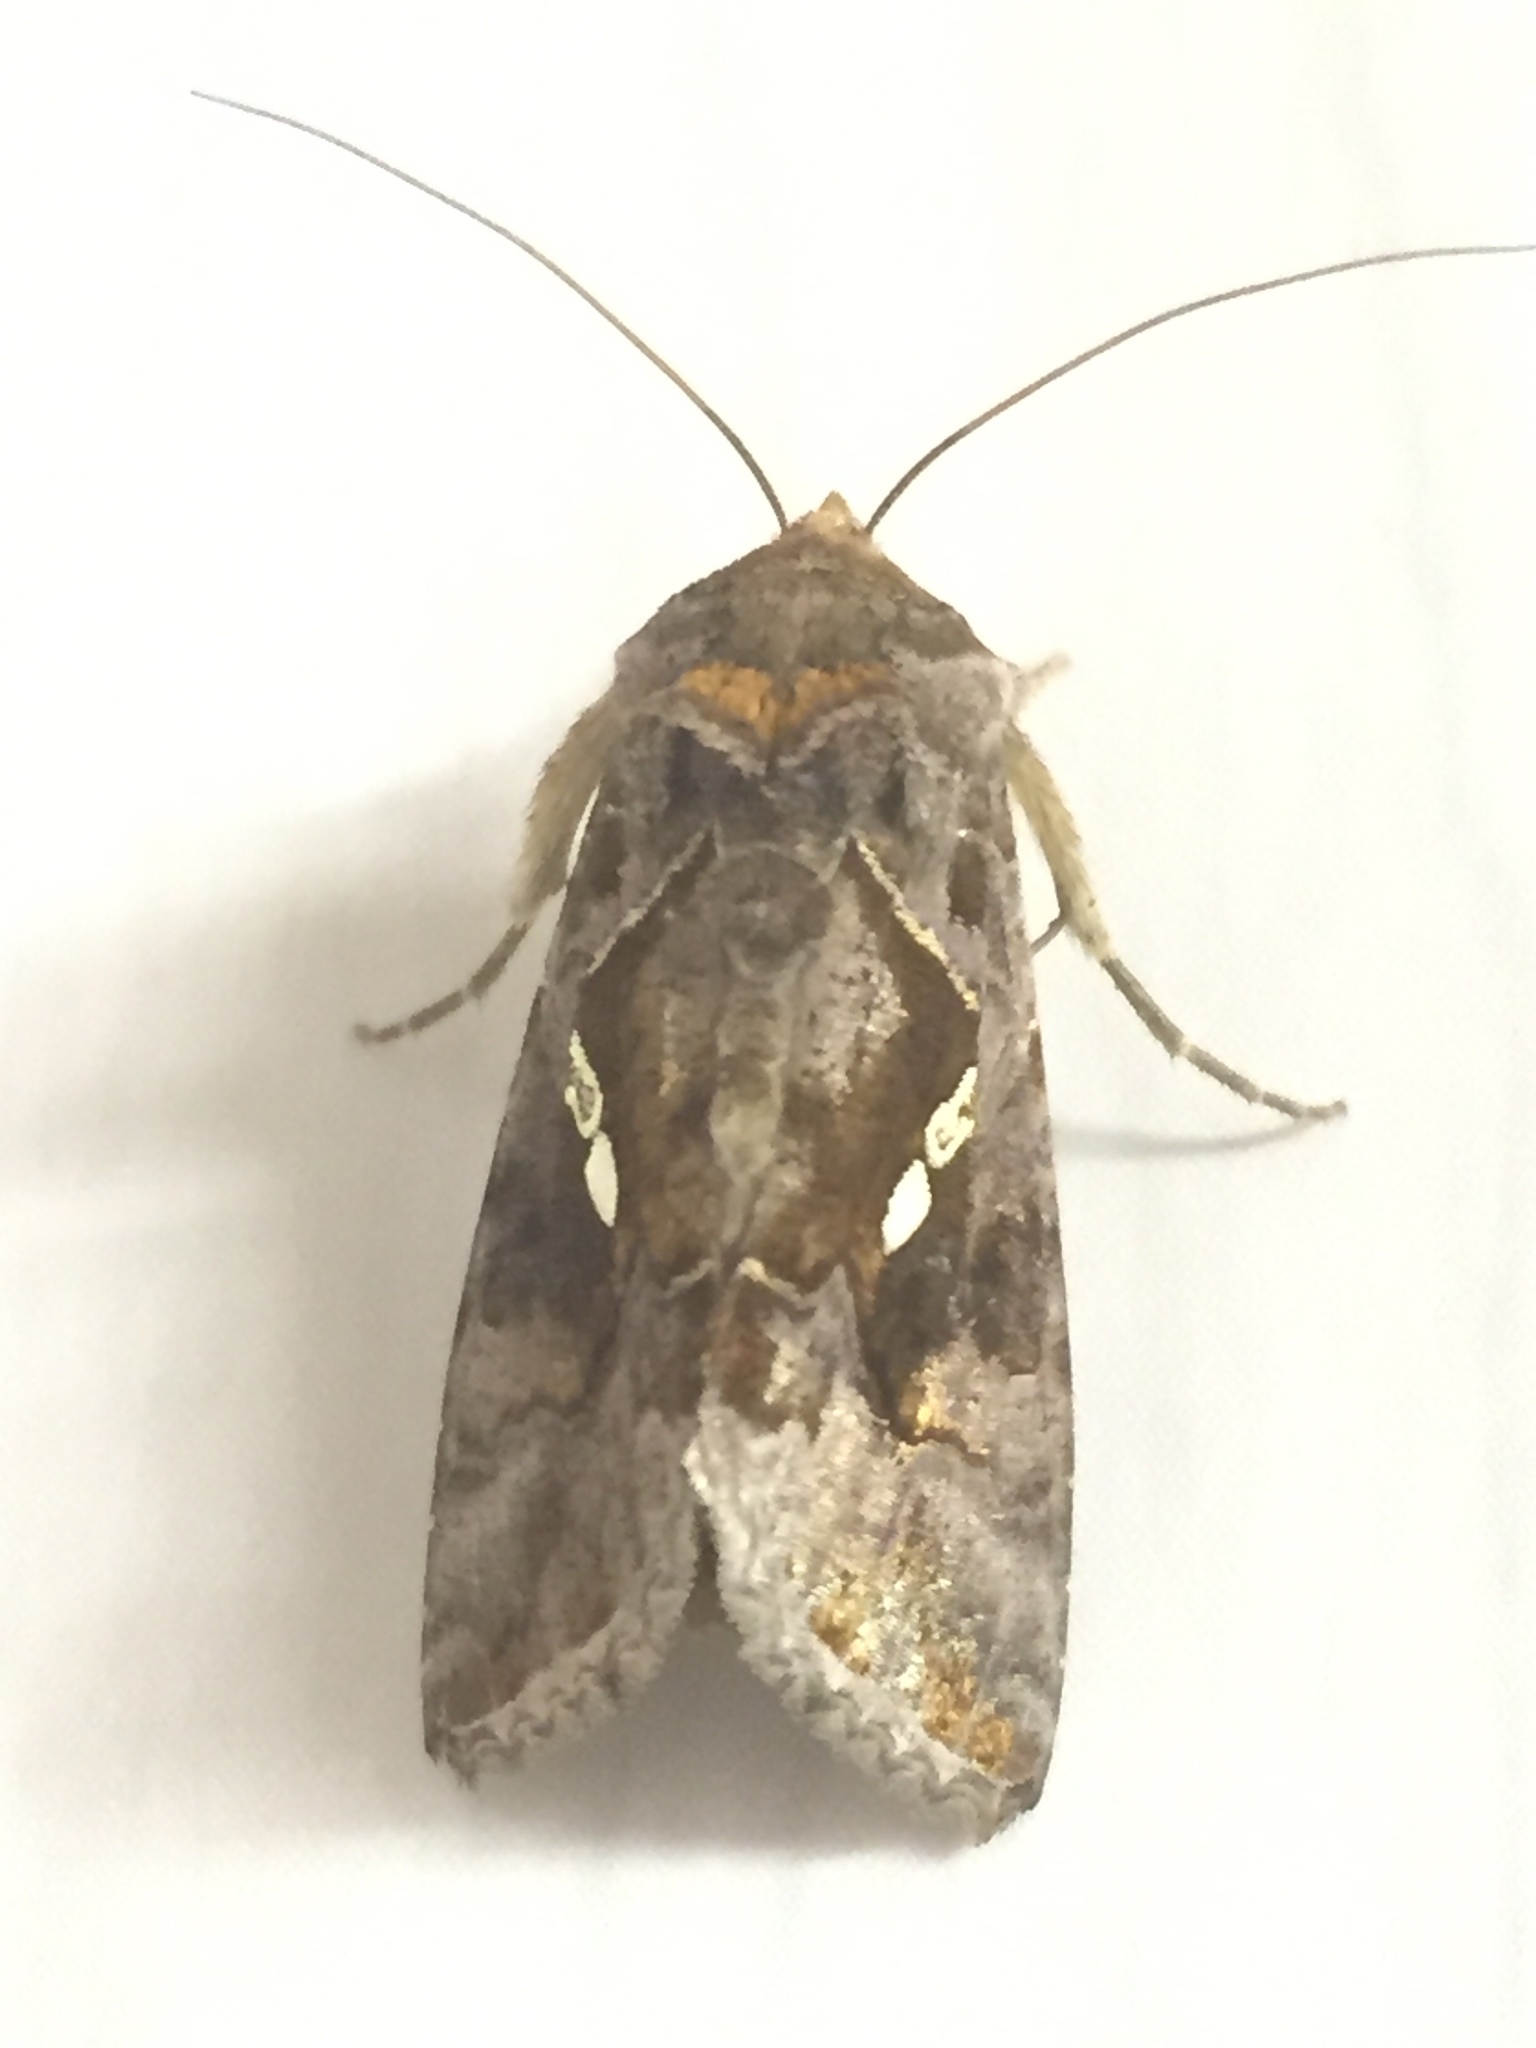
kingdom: Animalia
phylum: Arthropoda
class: Insecta
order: Lepidoptera
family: Noctuidae
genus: Chrysodeixis
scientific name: Chrysodeixis chalcites
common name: Golden twin-spot
